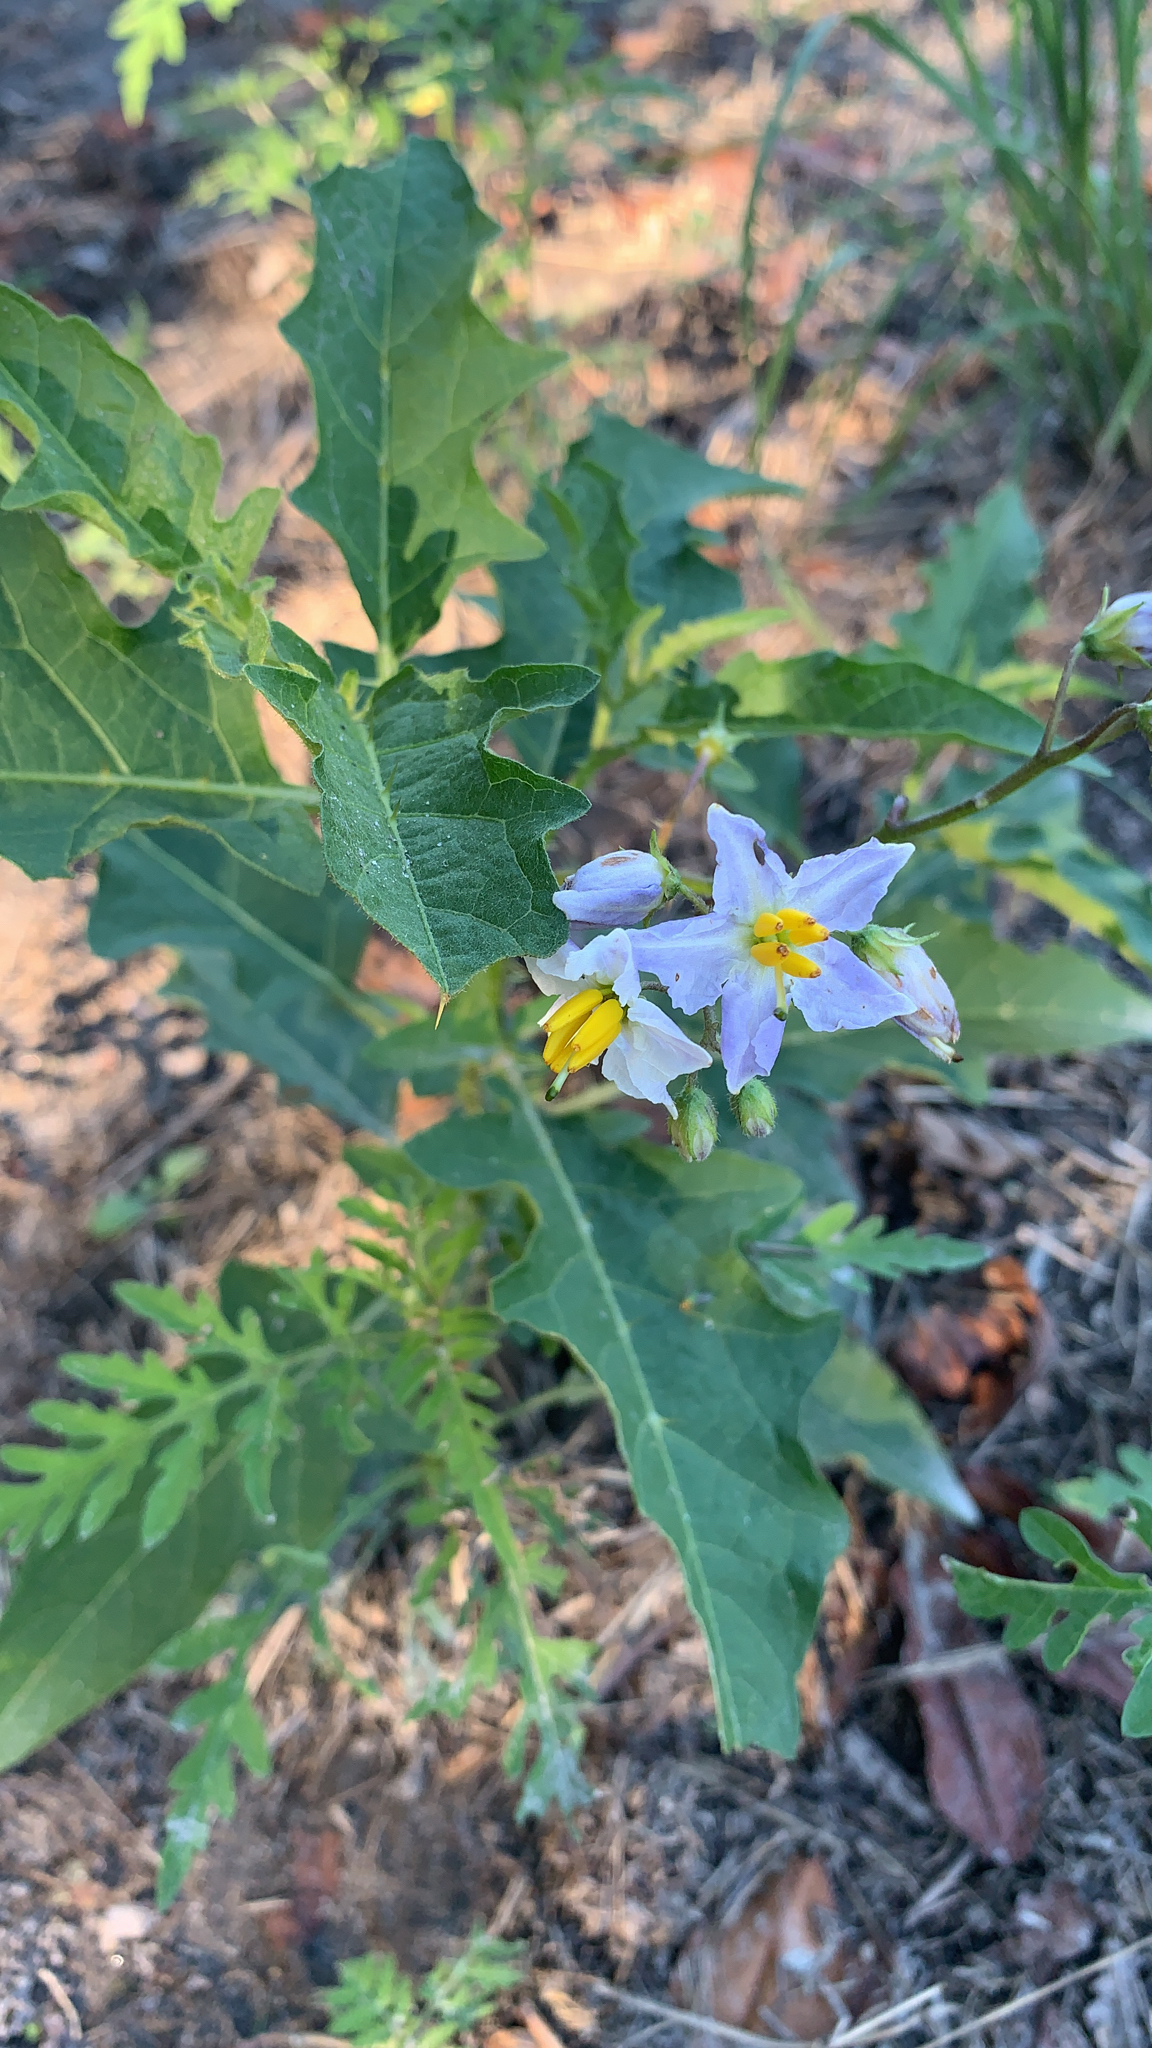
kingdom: Plantae
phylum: Tracheophyta
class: Magnoliopsida
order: Solanales
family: Solanaceae
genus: Solanum
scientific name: Solanum carolinense
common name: Horse-nettle
